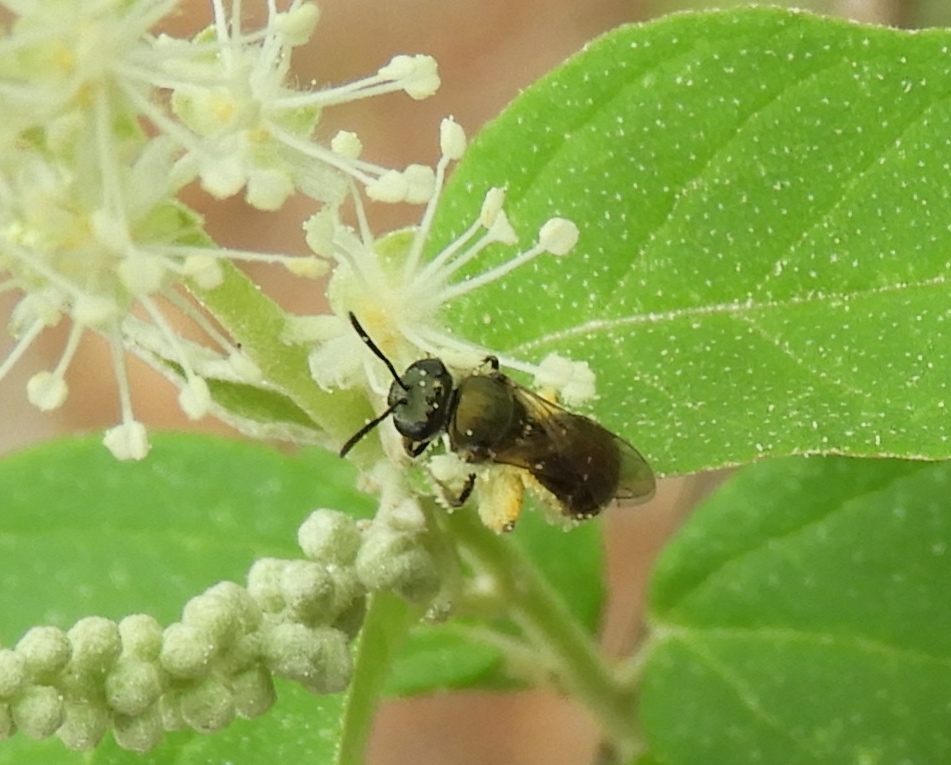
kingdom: Animalia
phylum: Arthropoda
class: Insecta
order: Hymenoptera
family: Halictidae
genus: Dialictus
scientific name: Dialictus
